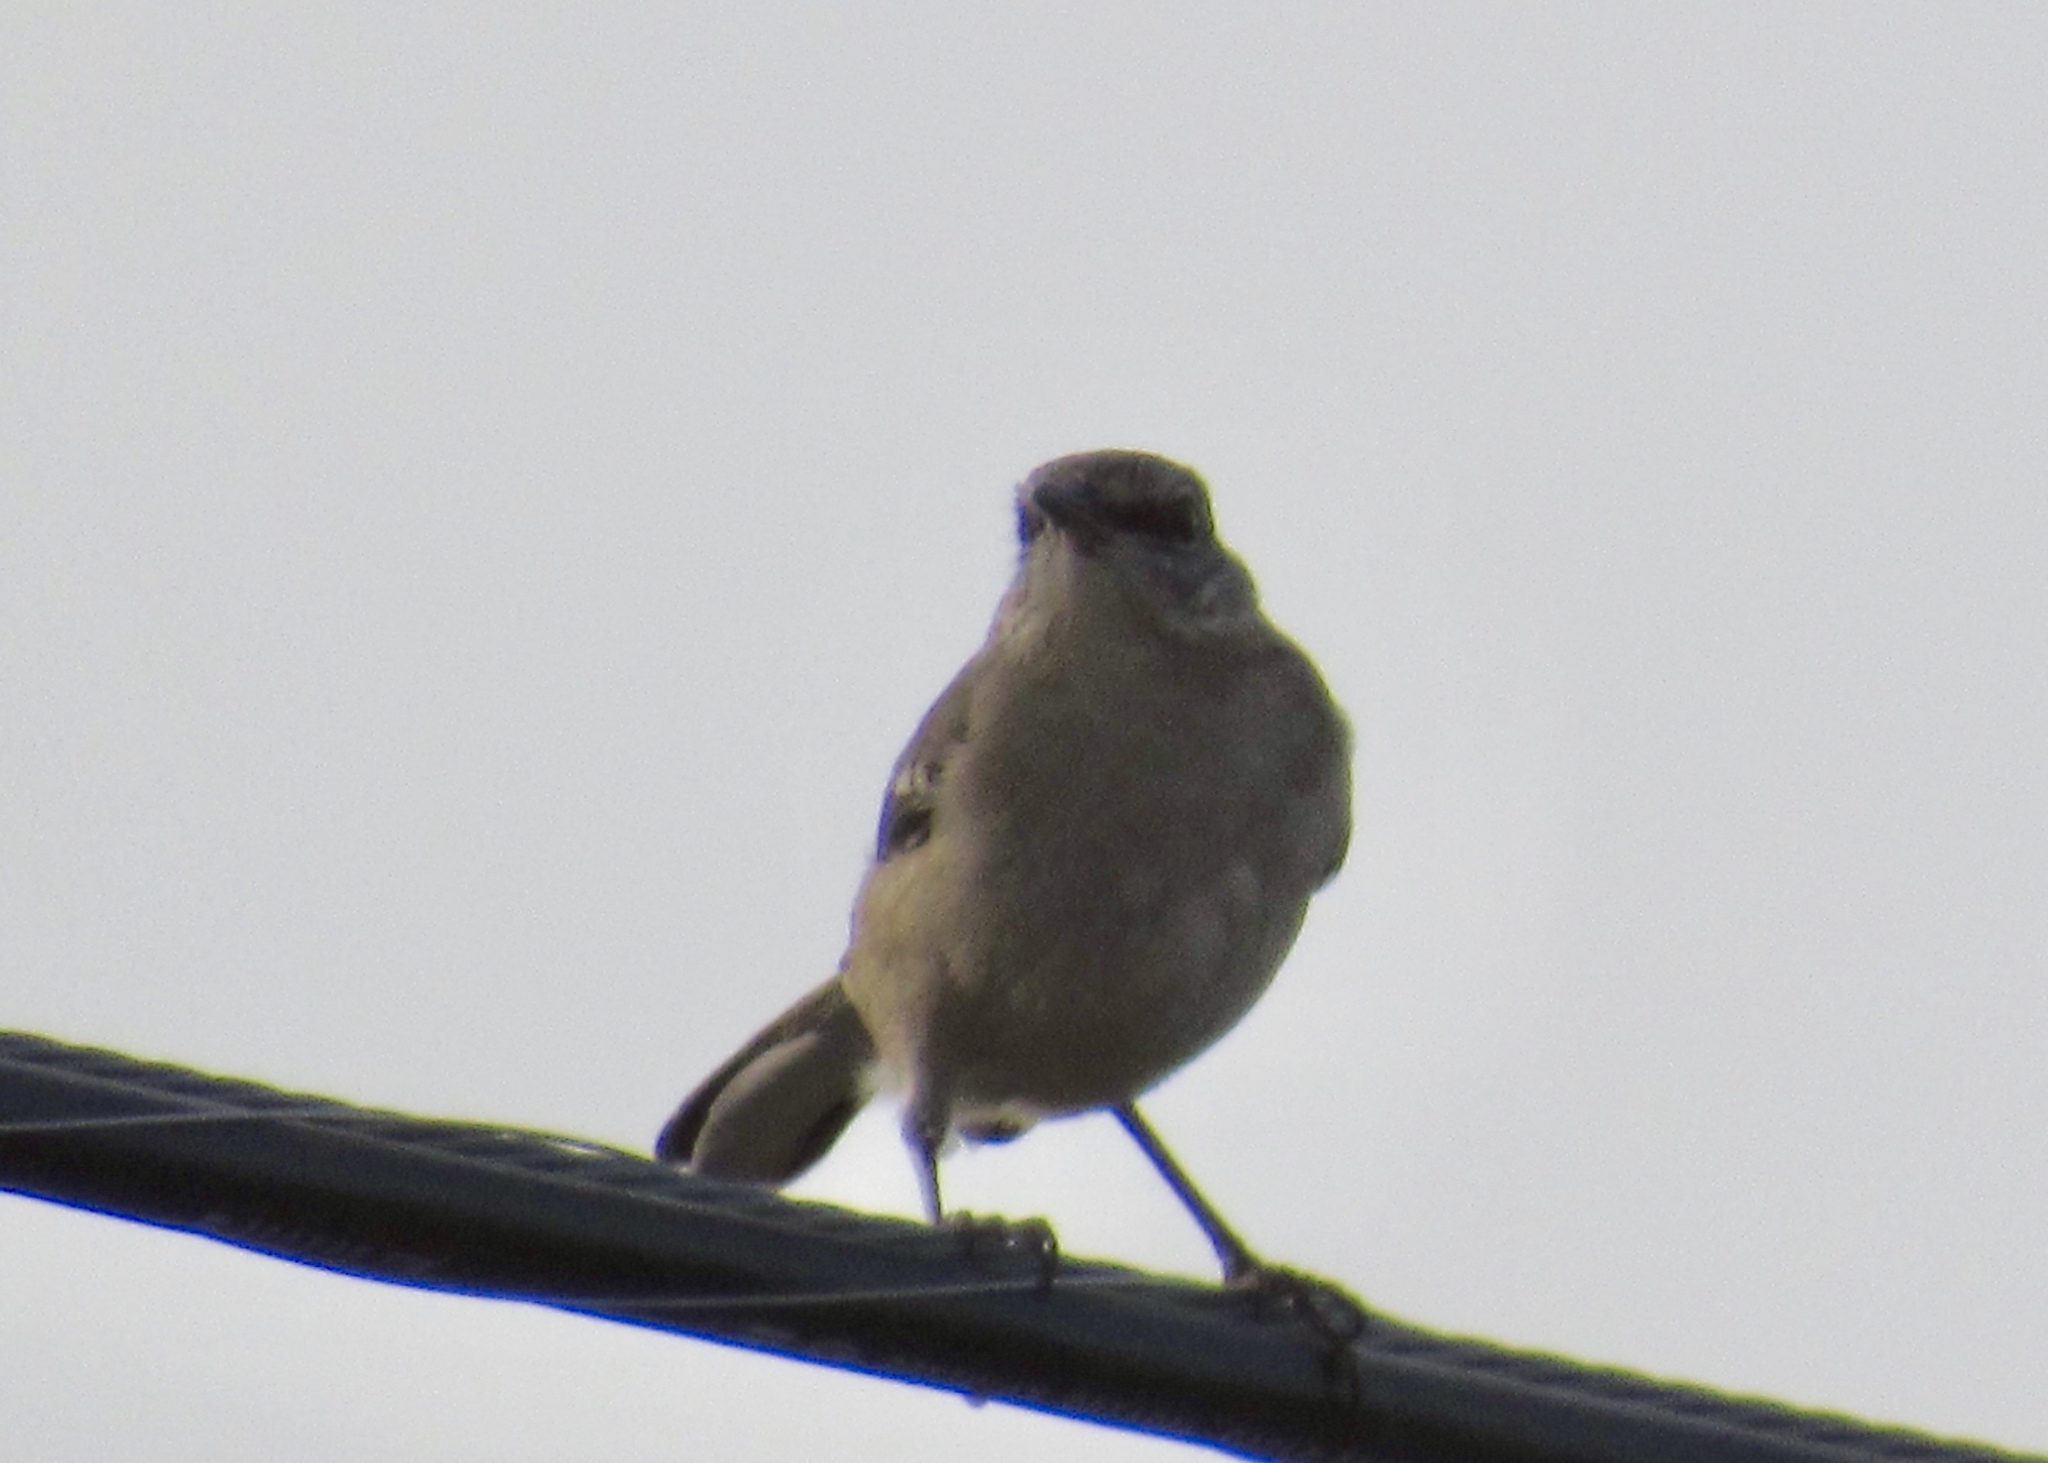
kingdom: Animalia
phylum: Chordata
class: Aves
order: Passeriformes
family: Mimidae
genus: Mimus
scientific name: Mimus polyglottos
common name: Northern mockingbird
